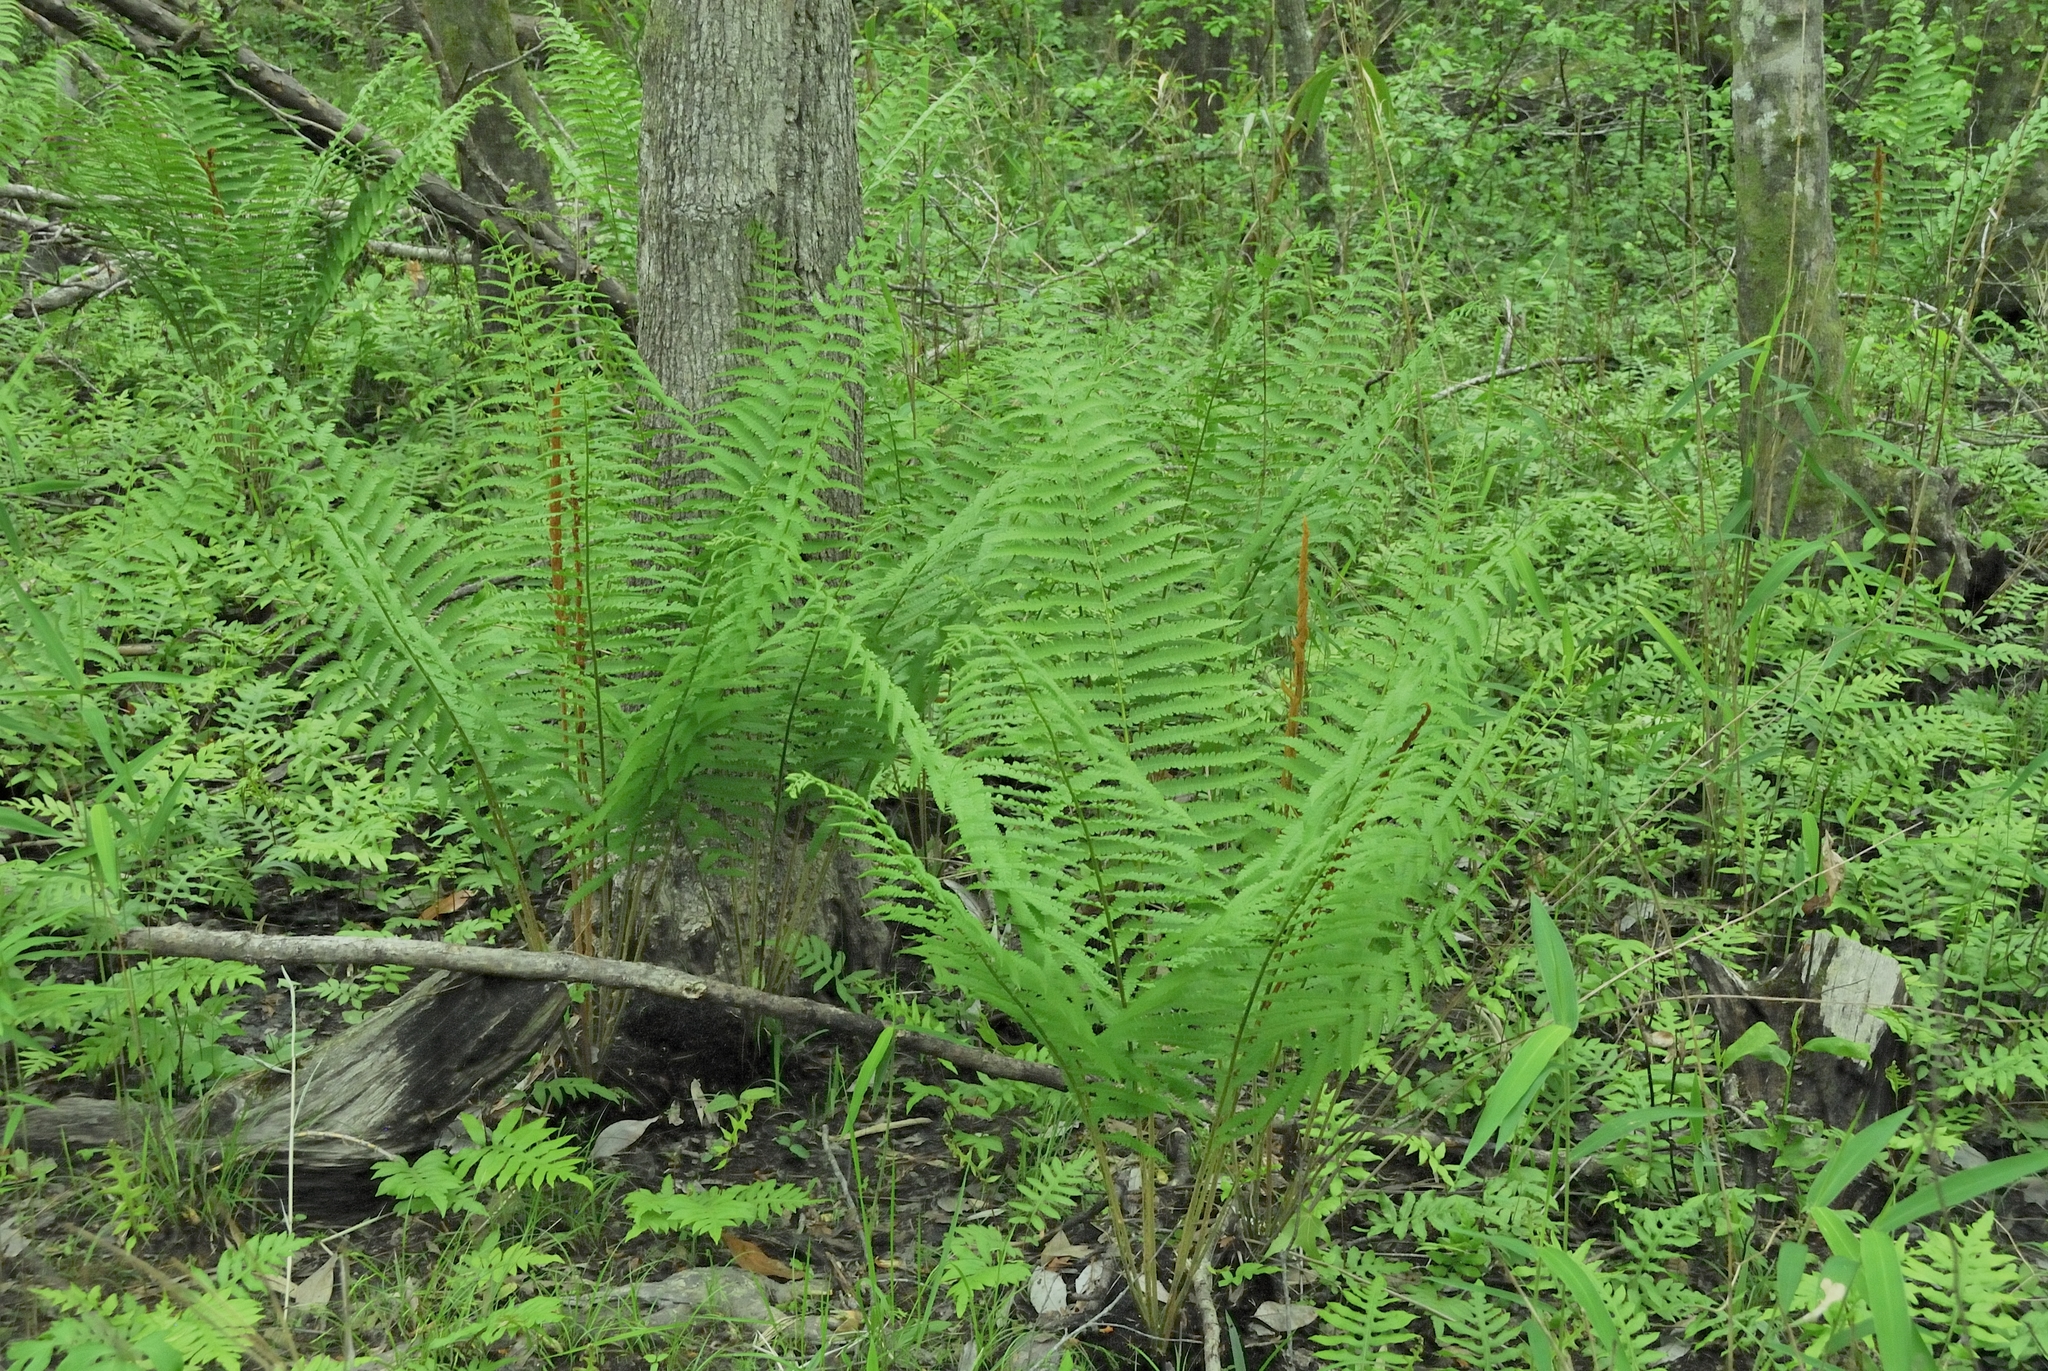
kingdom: Plantae
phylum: Tracheophyta
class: Polypodiopsida
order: Osmundales
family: Osmundaceae
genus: Osmundastrum
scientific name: Osmundastrum cinnamomeum
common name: Cinnamon fern
